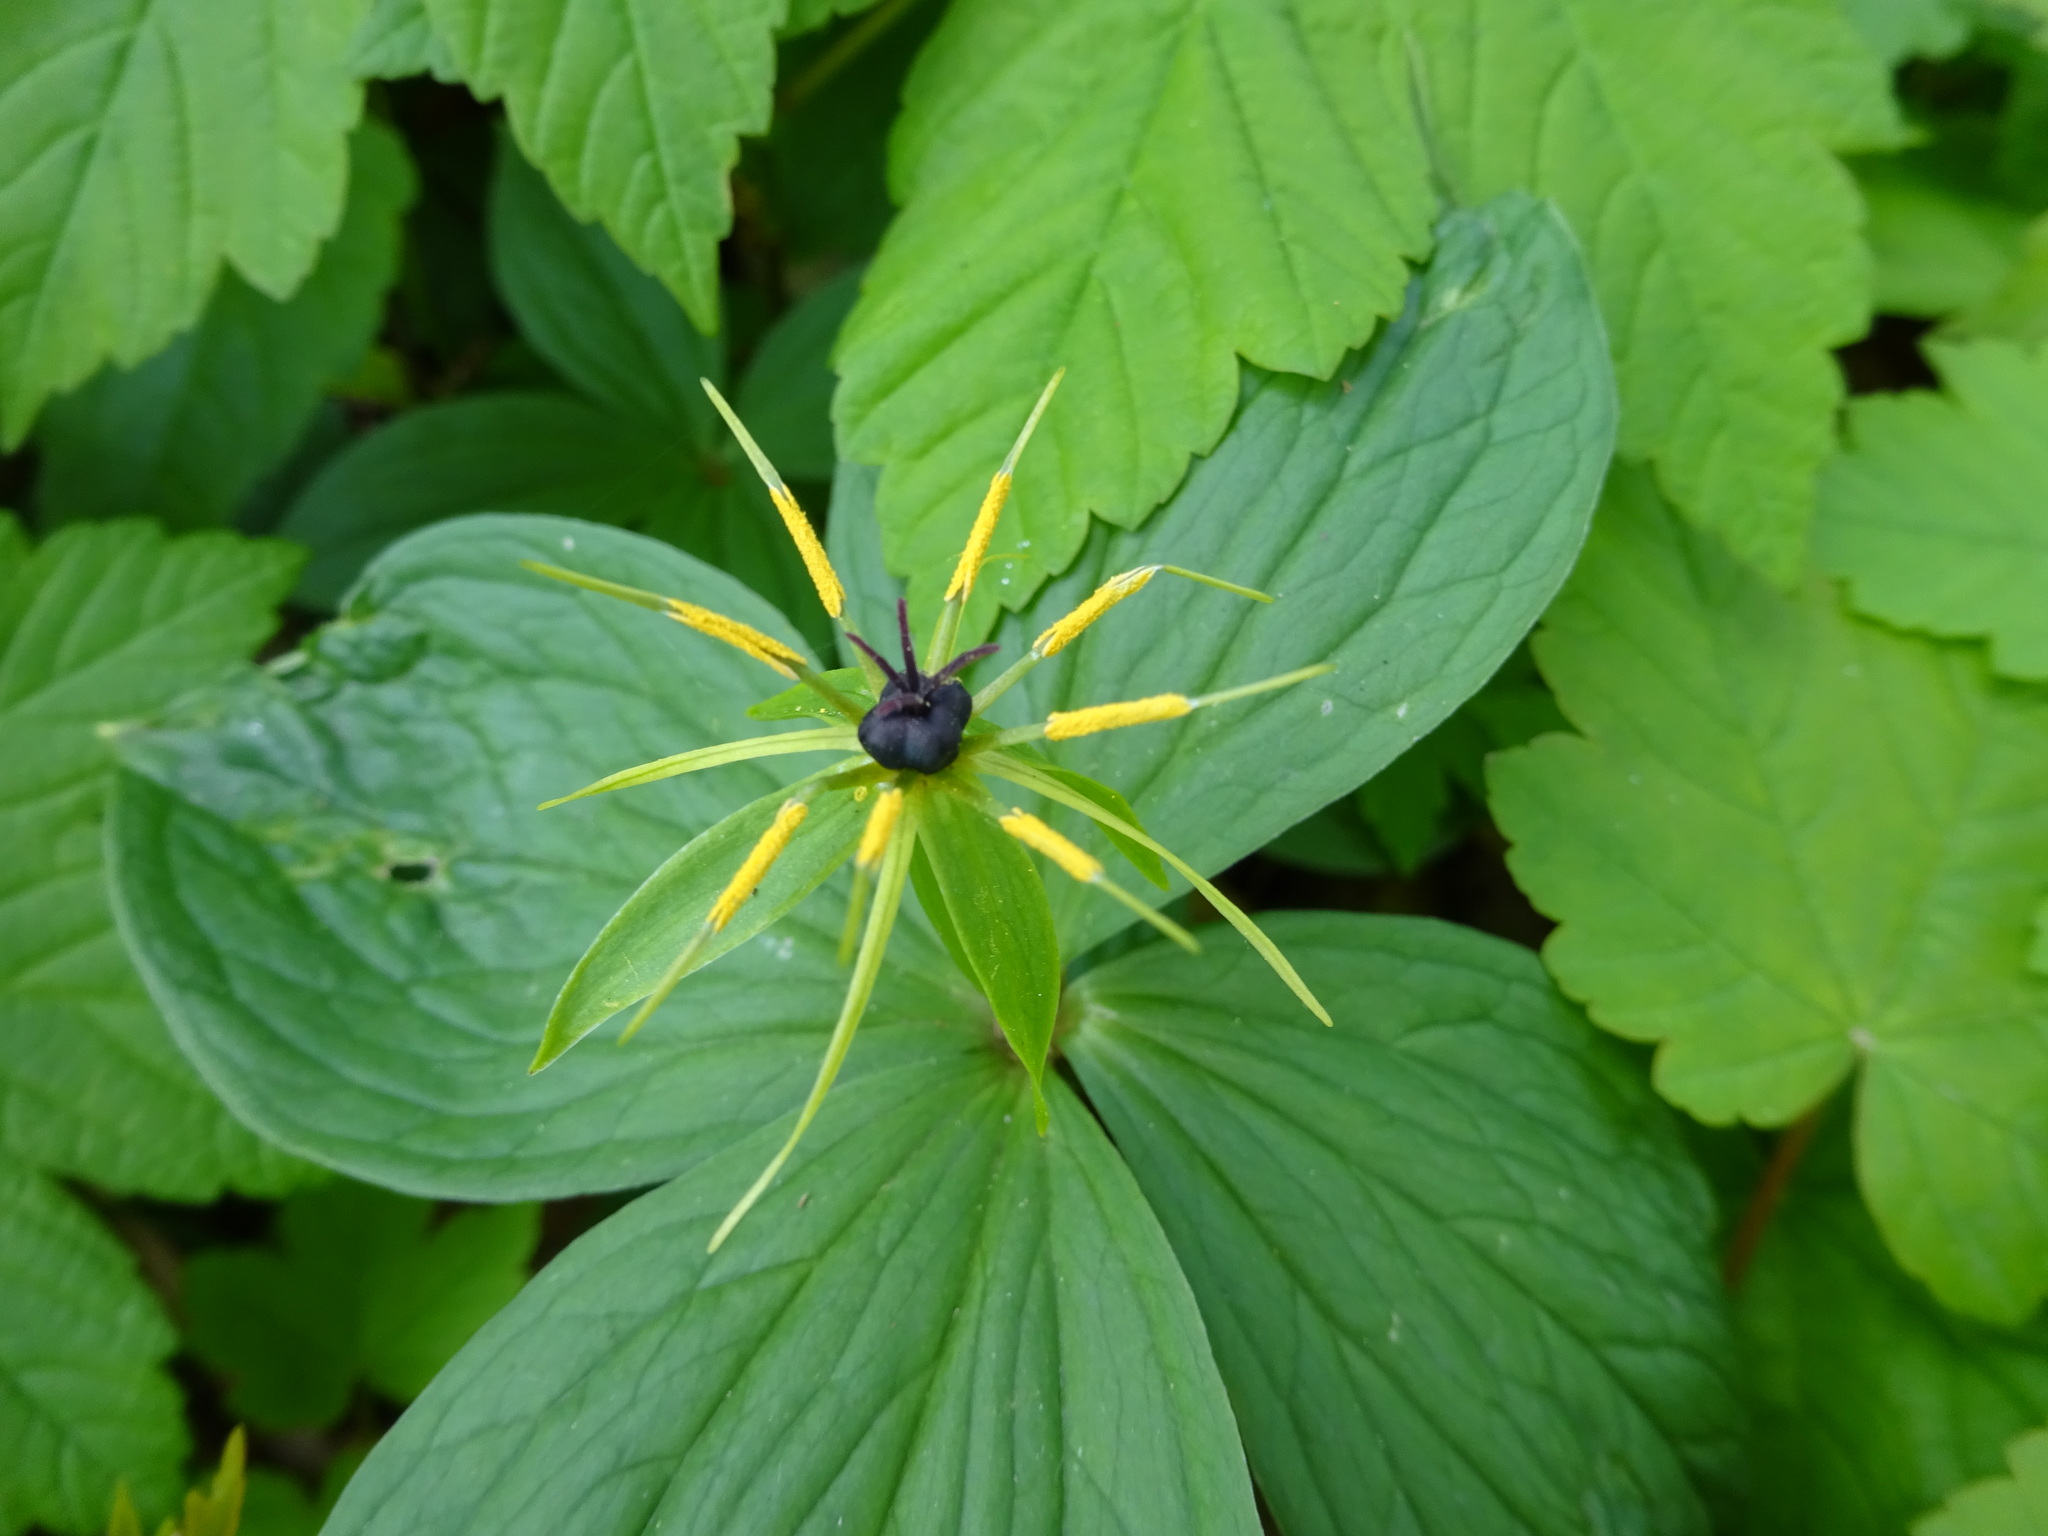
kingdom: Plantae
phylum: Tracheophyta
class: Liliopsida
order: Liliales
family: Melanthiaceae
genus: Paris
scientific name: Paris quadrifolia
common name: Herb-paris
